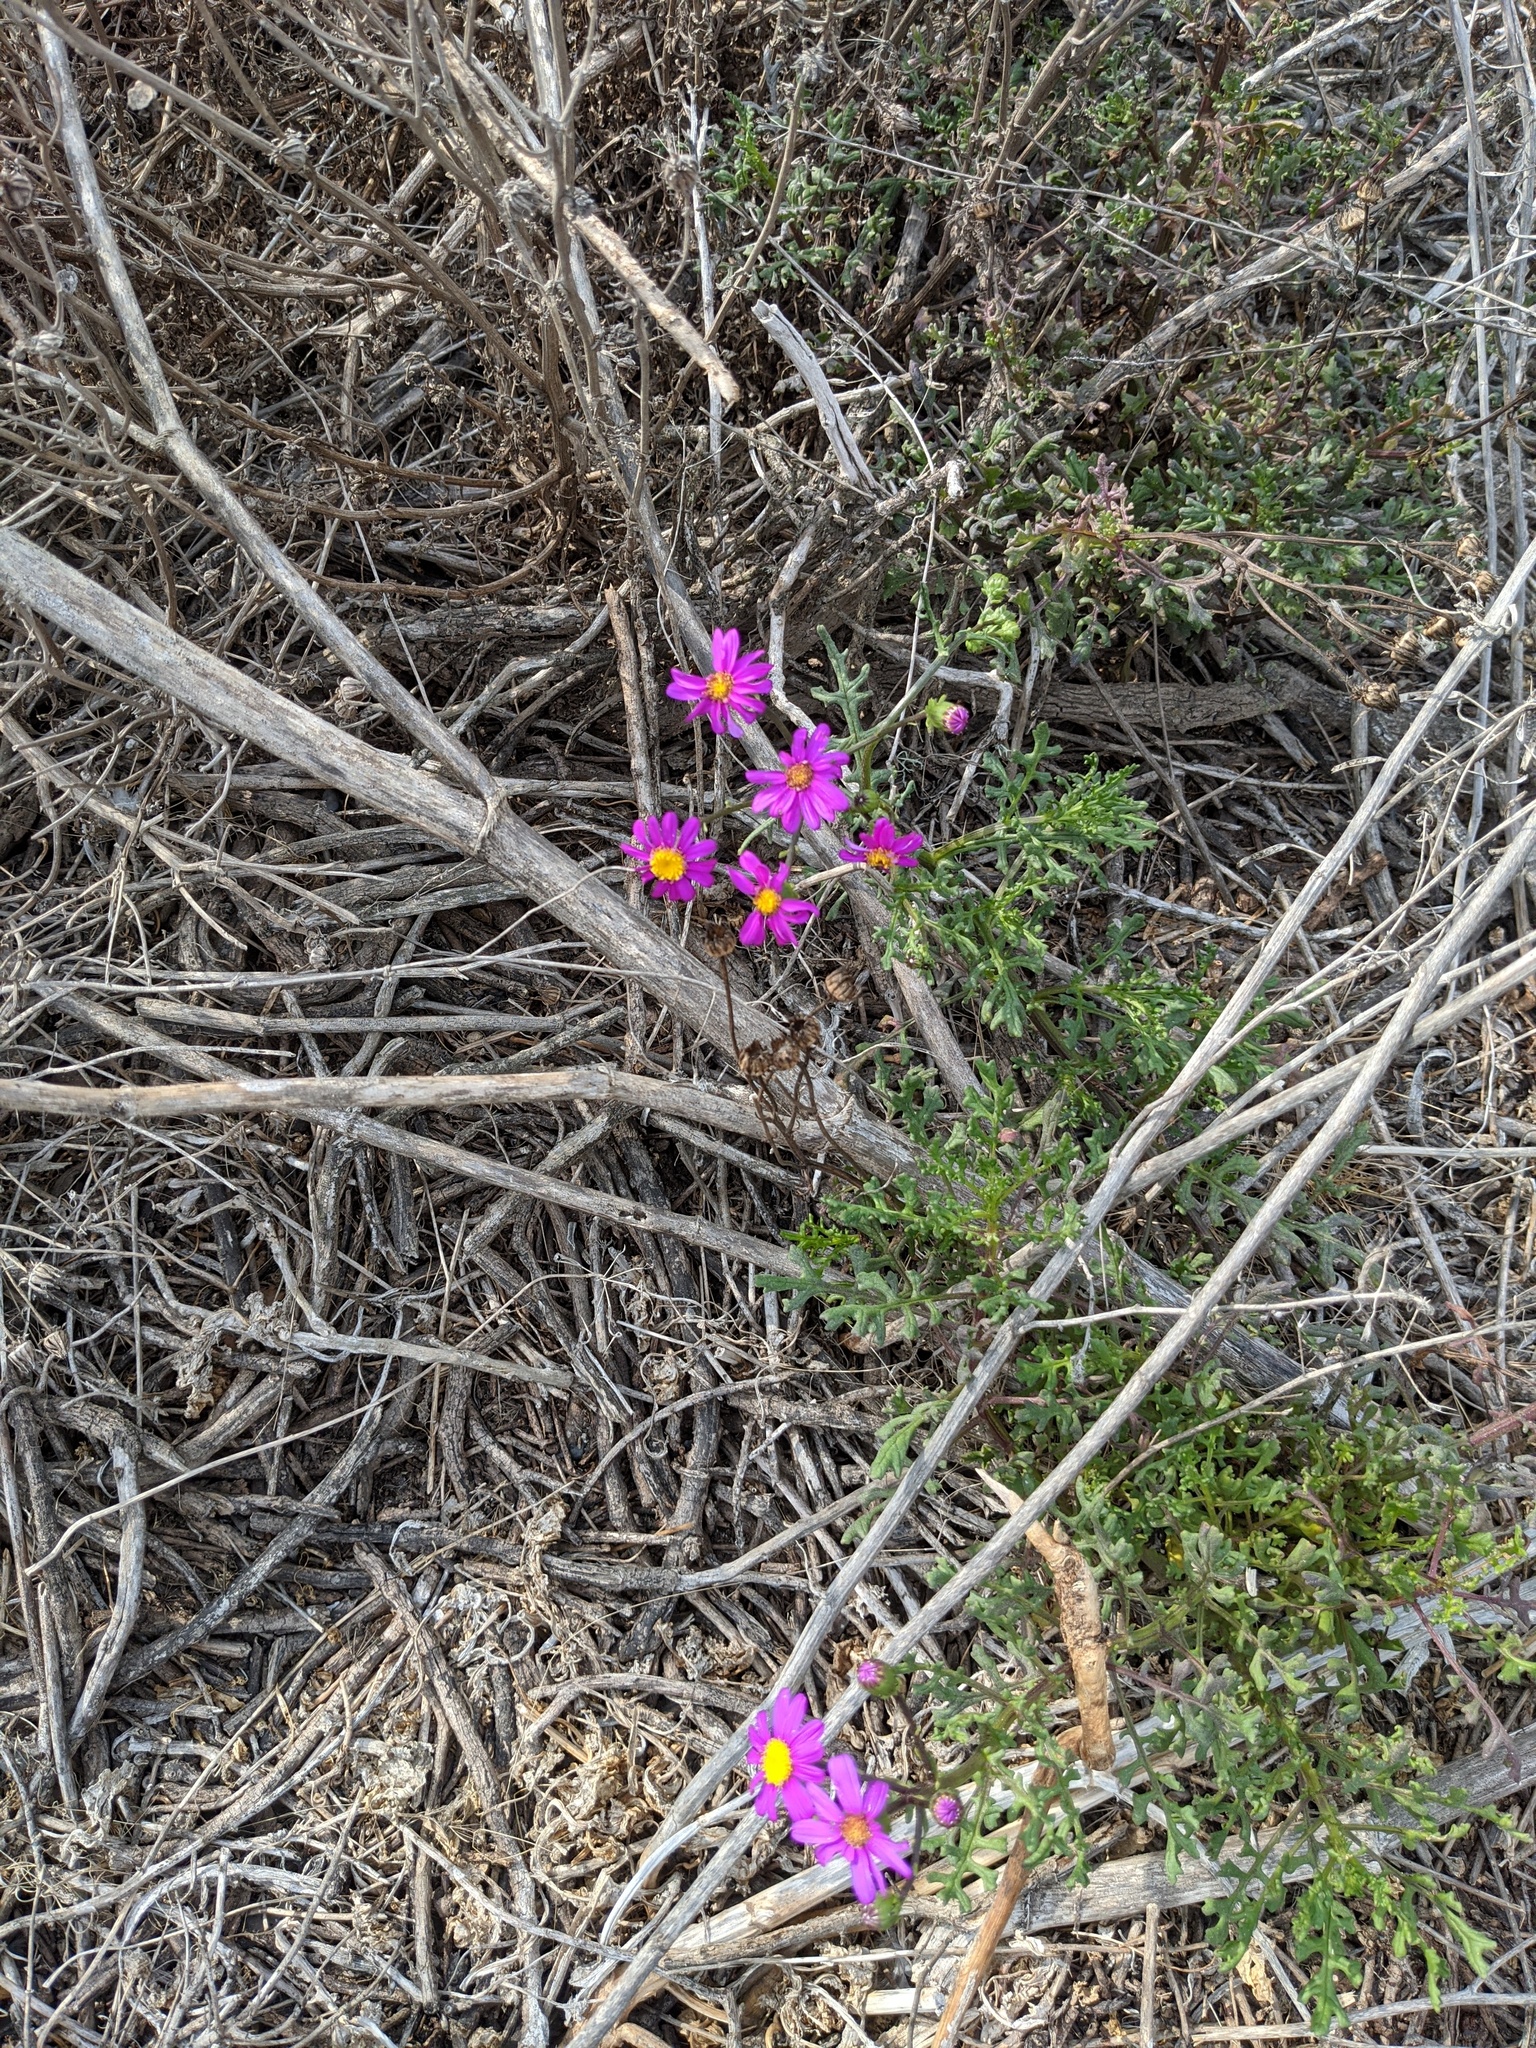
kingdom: Plantae
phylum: Tracheophyta
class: Magnoliopsida
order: Asterales
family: Asteraceae
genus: Senecio
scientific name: Senecio elegans
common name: Purple groundsel
